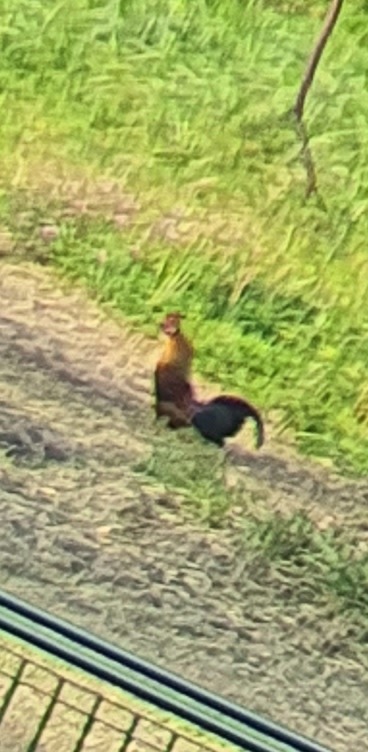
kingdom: Animalia
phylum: Chordata
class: Aves
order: Galliformes
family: Phasianidae
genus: Gallus
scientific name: Gallus gallus
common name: Red junglefowl
